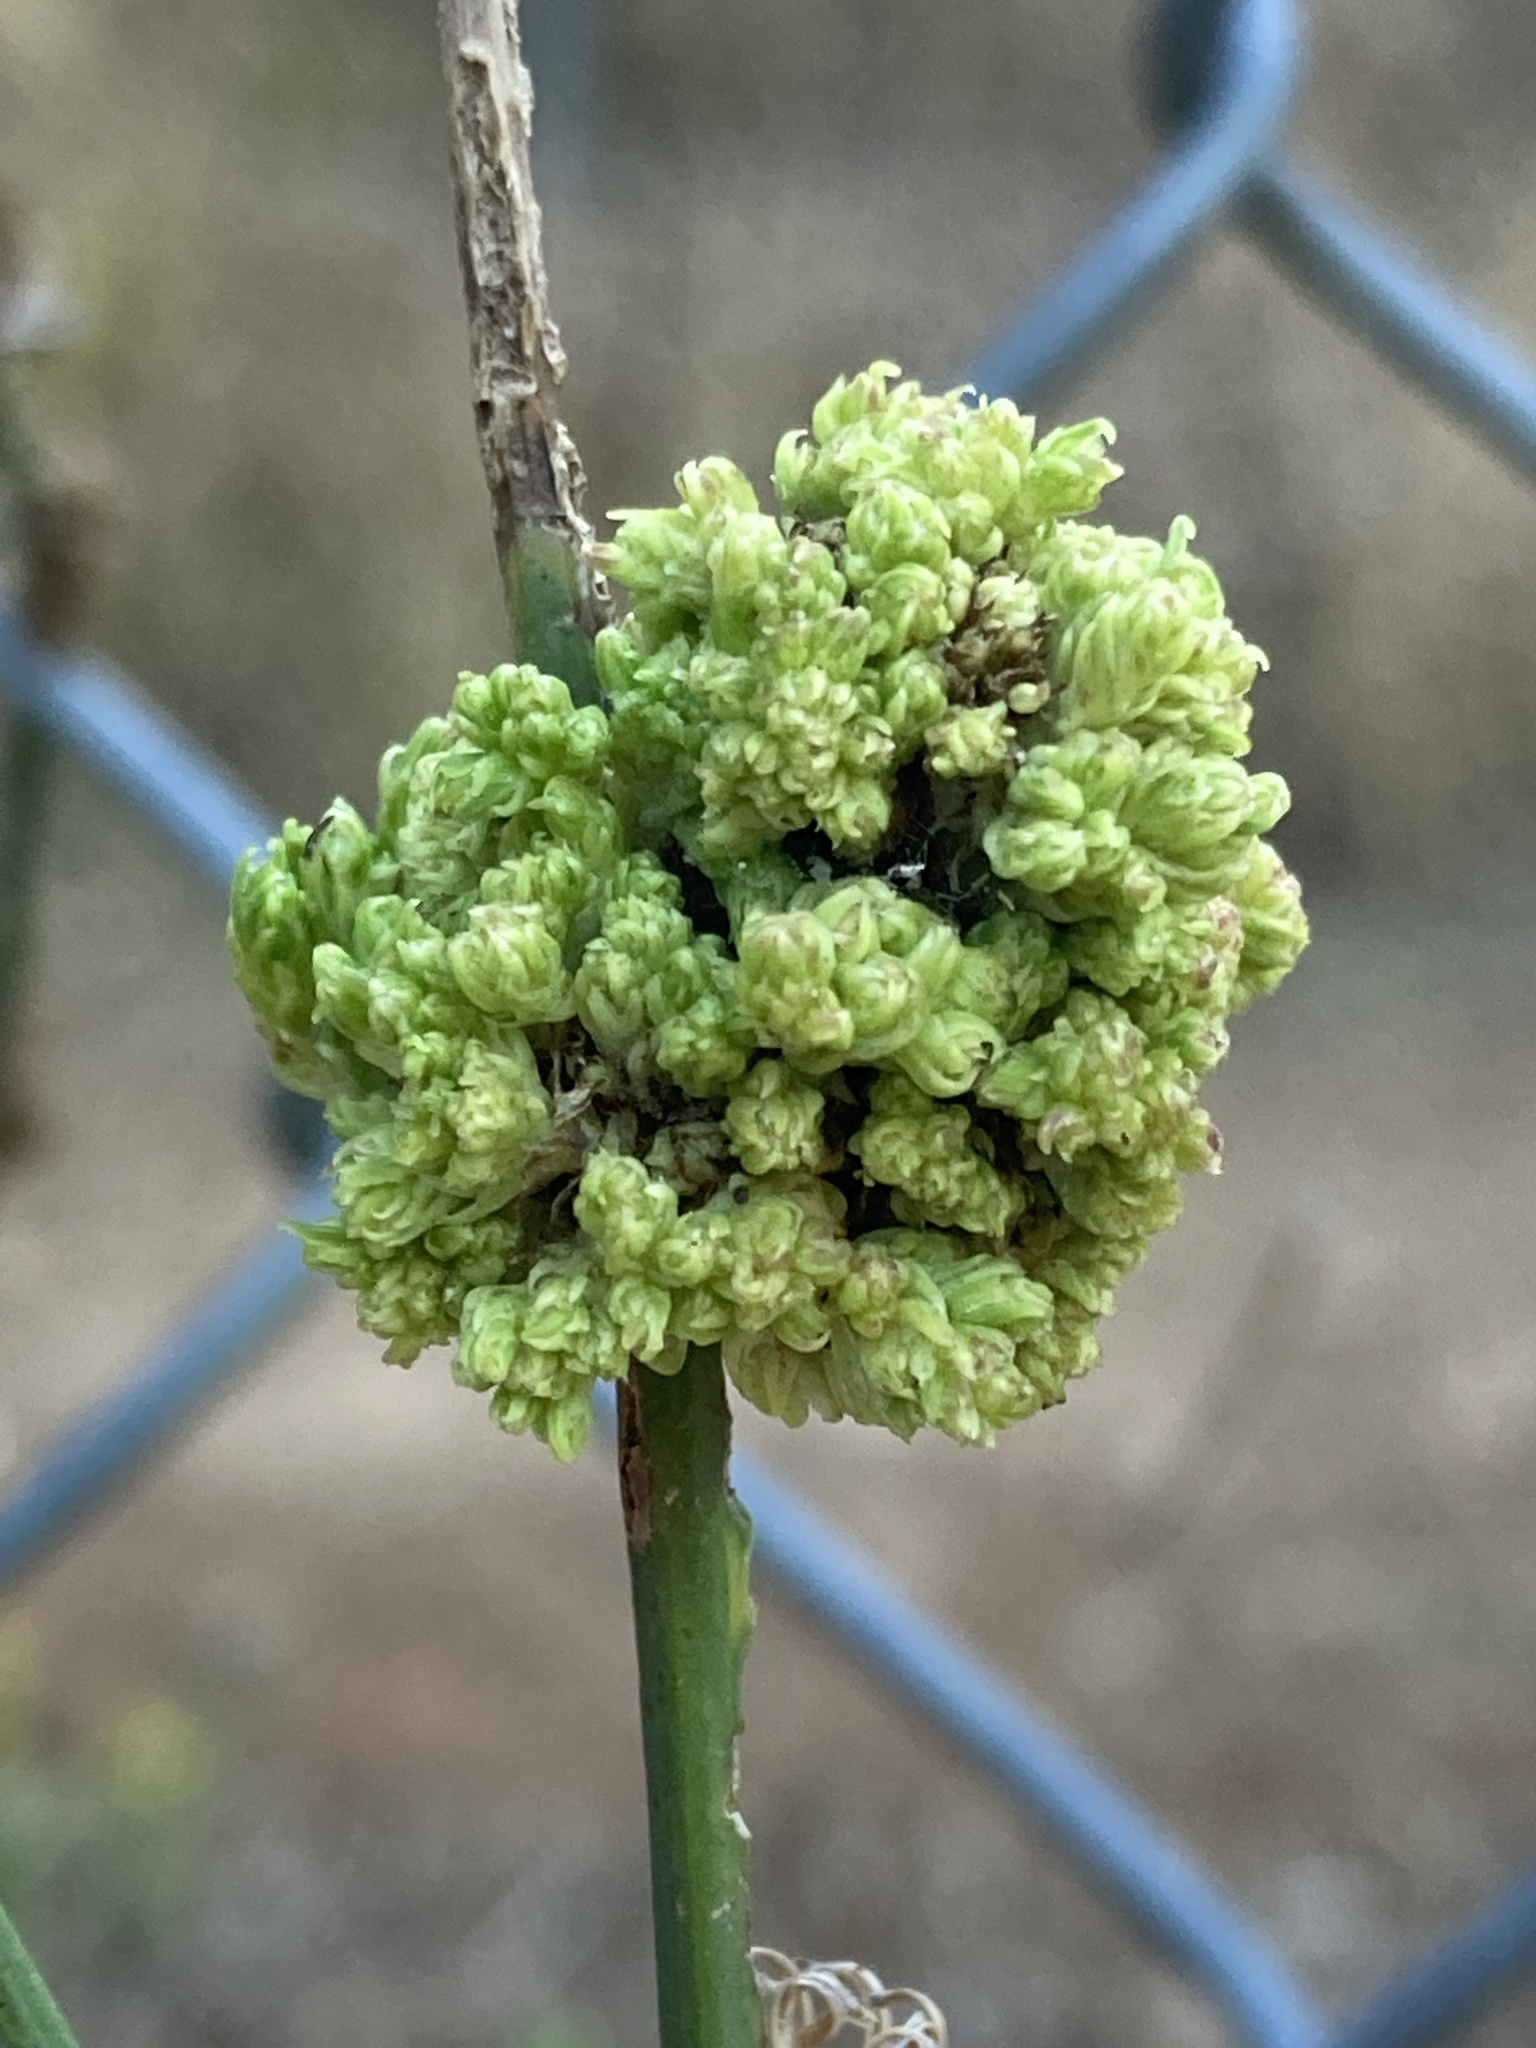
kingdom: Animalia
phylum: Arthropoda
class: Arachnida
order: Trombidiformes
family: Eriophyidae
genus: Aceria
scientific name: Aceria chondrillae
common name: Rush skeletonweed gall mite
